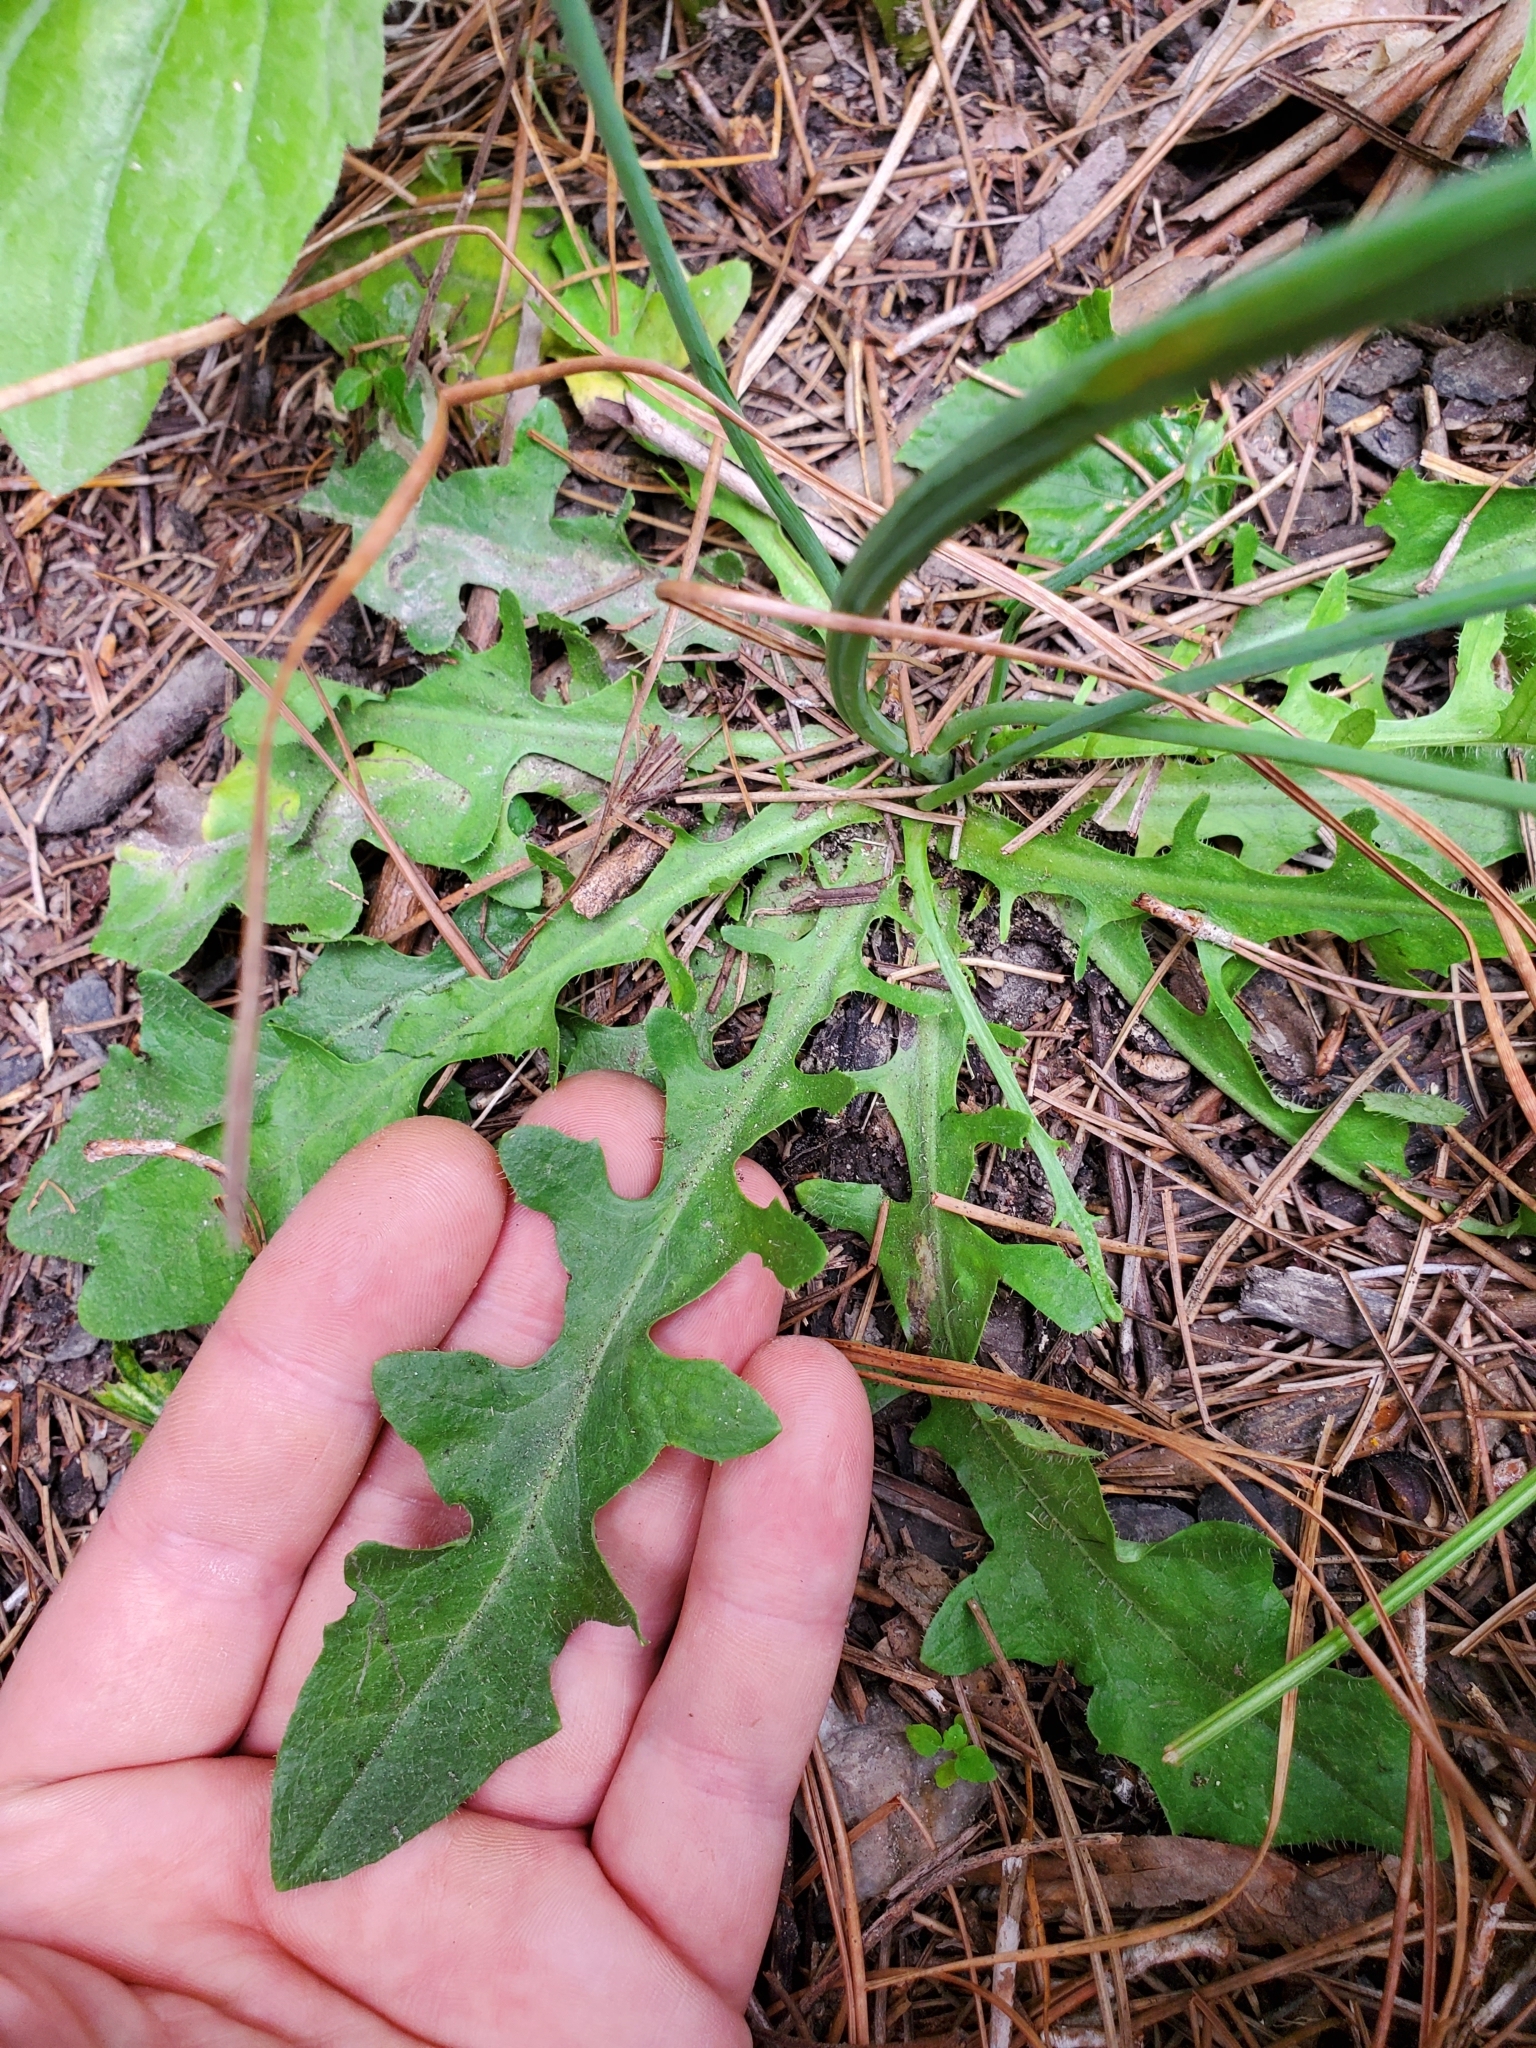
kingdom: Plantae
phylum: Tracheophyta
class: Magnoliopsida
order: Asterales
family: Asteraceae
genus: Hypochaeris
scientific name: Hypochaeris radicata
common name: Flatweed
